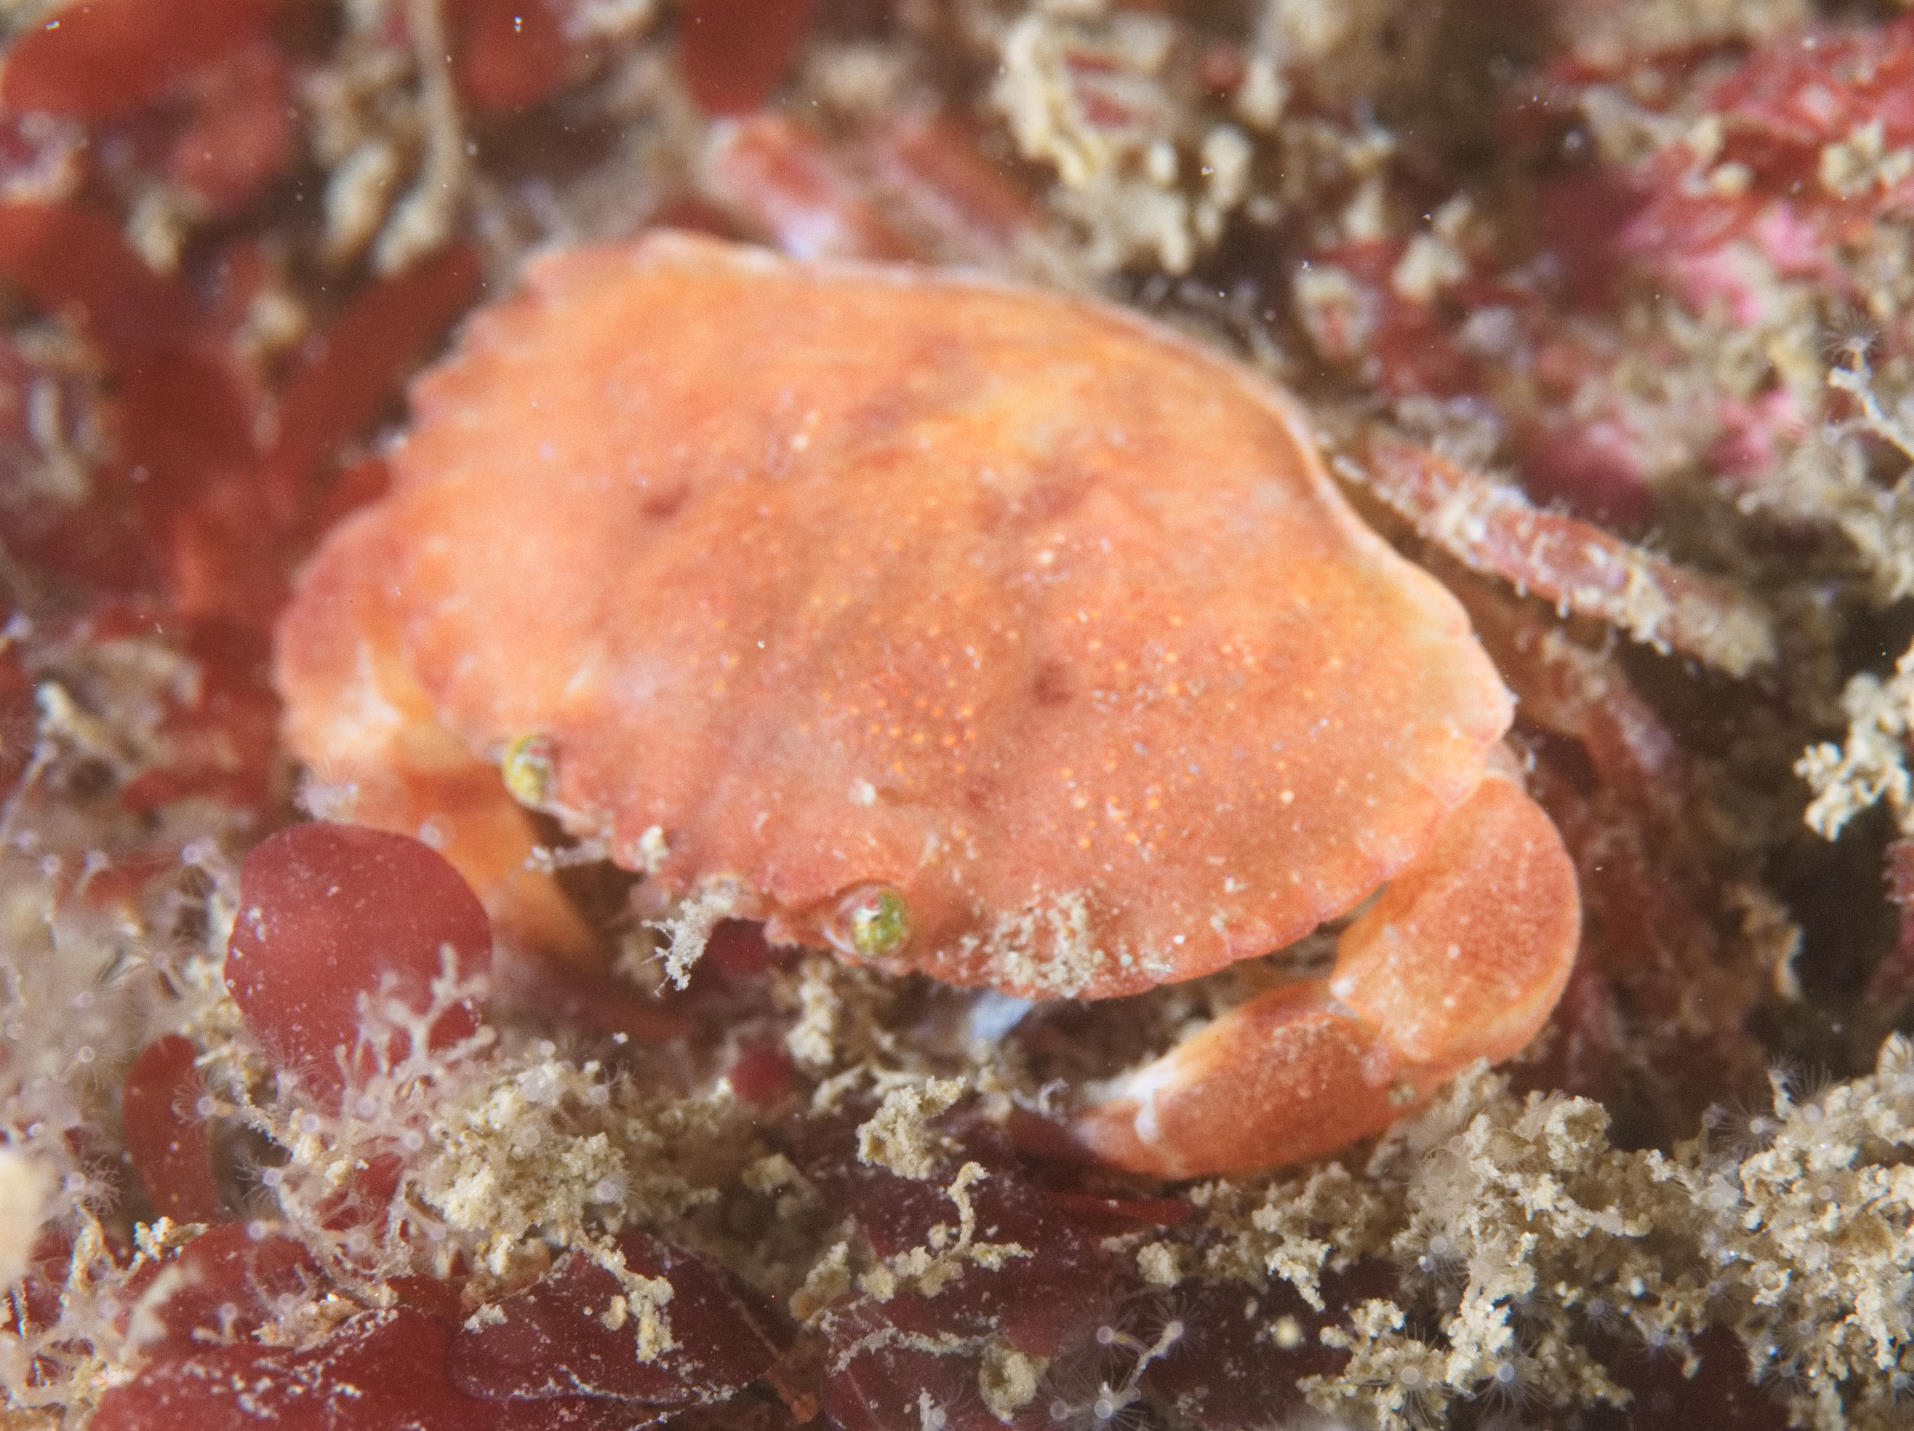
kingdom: Animalia
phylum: Arthropoda
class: Malacostraca
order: Decapoda
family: Cancridae
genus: Cancer
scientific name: Cancer pagurus
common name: Edible crab
